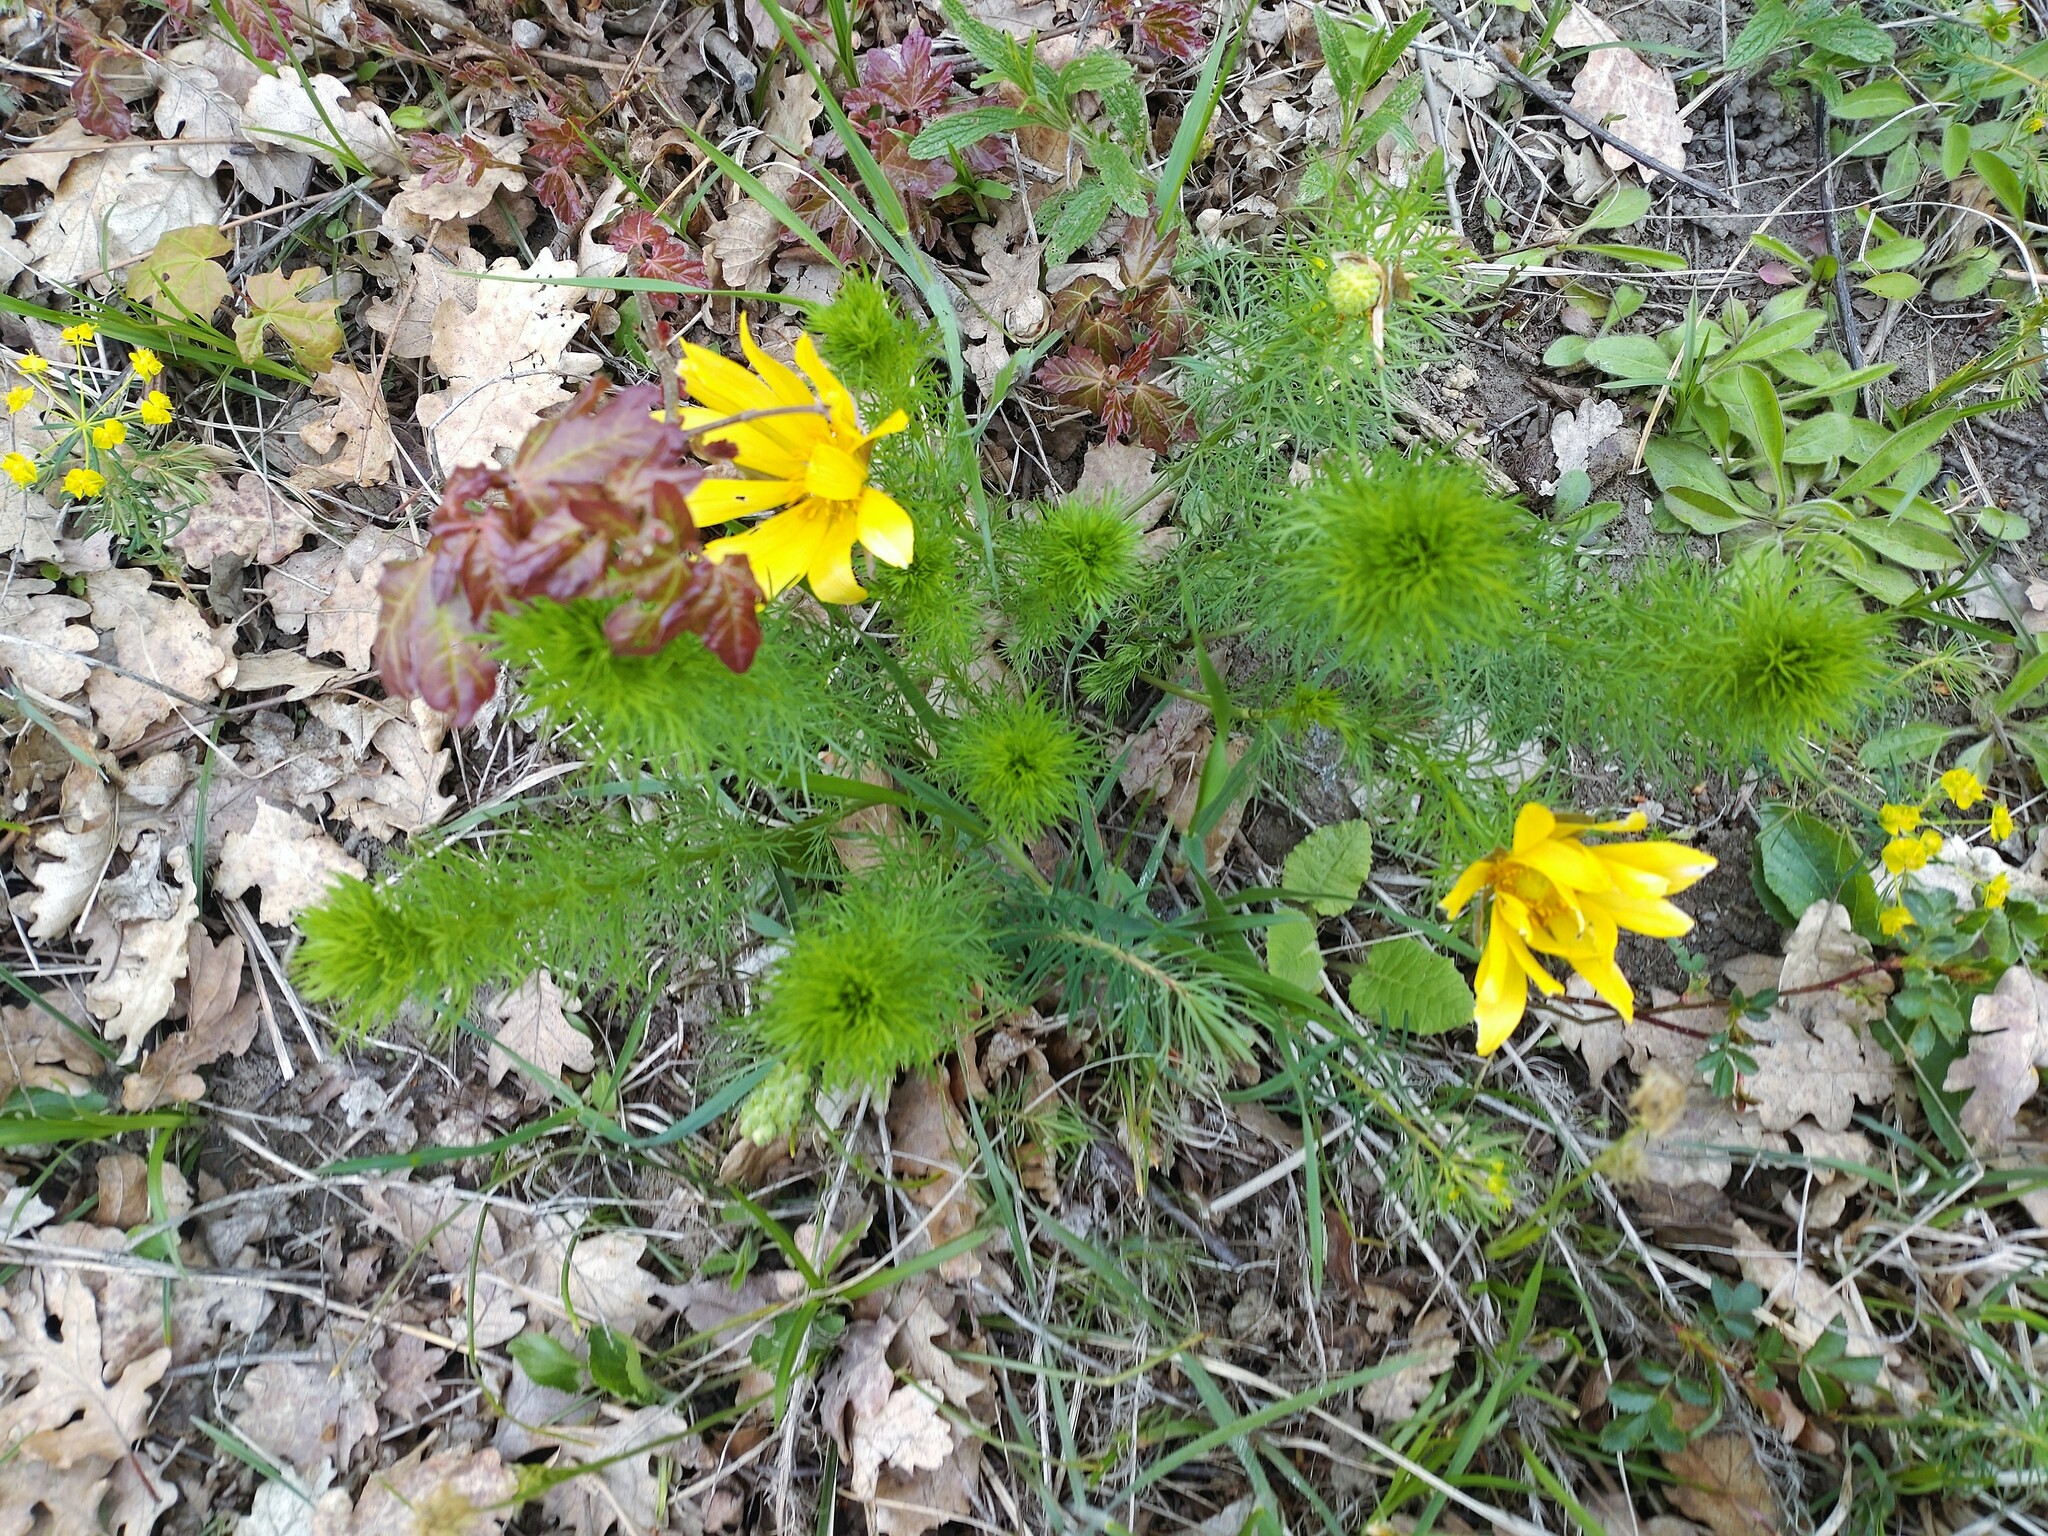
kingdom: Plantae
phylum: Tracheophyta
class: Magnoliopsida
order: Ranunculales
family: Ranunculaceae
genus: Adonis
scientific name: Adonis vernalis
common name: Yellow pheasants-eye
